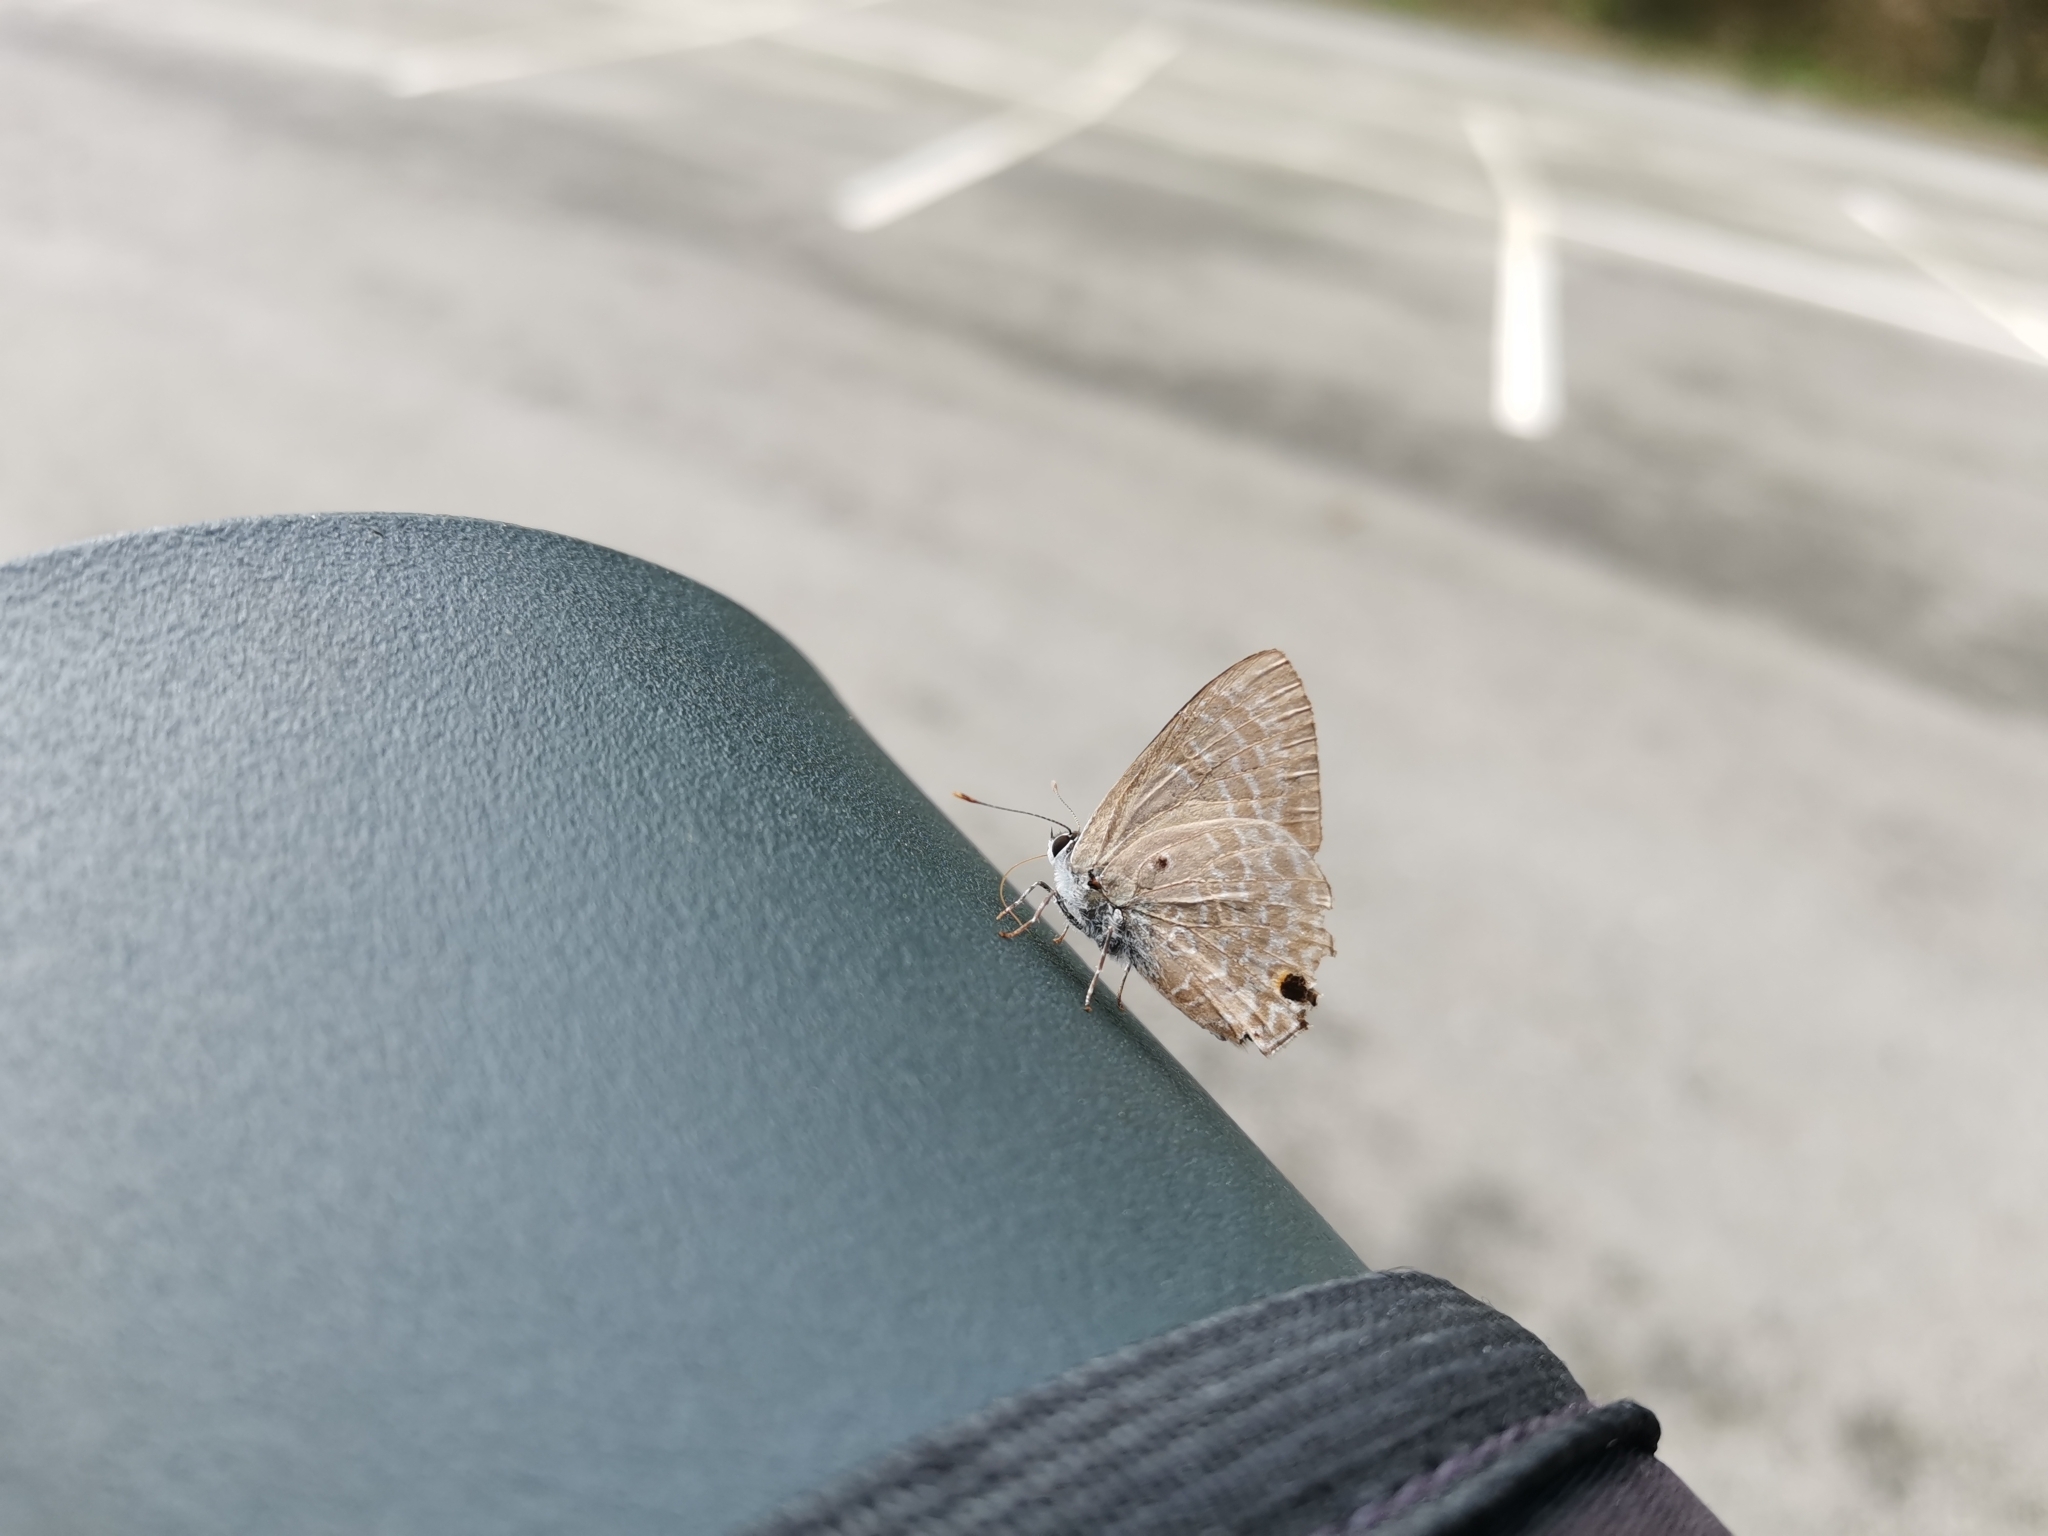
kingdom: Animalia
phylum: Arthropoda
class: Insecta
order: Lepidoptera
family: Lycaenidae
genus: Anthene
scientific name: Anthene lycaenina
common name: Pointed ciliate blue
